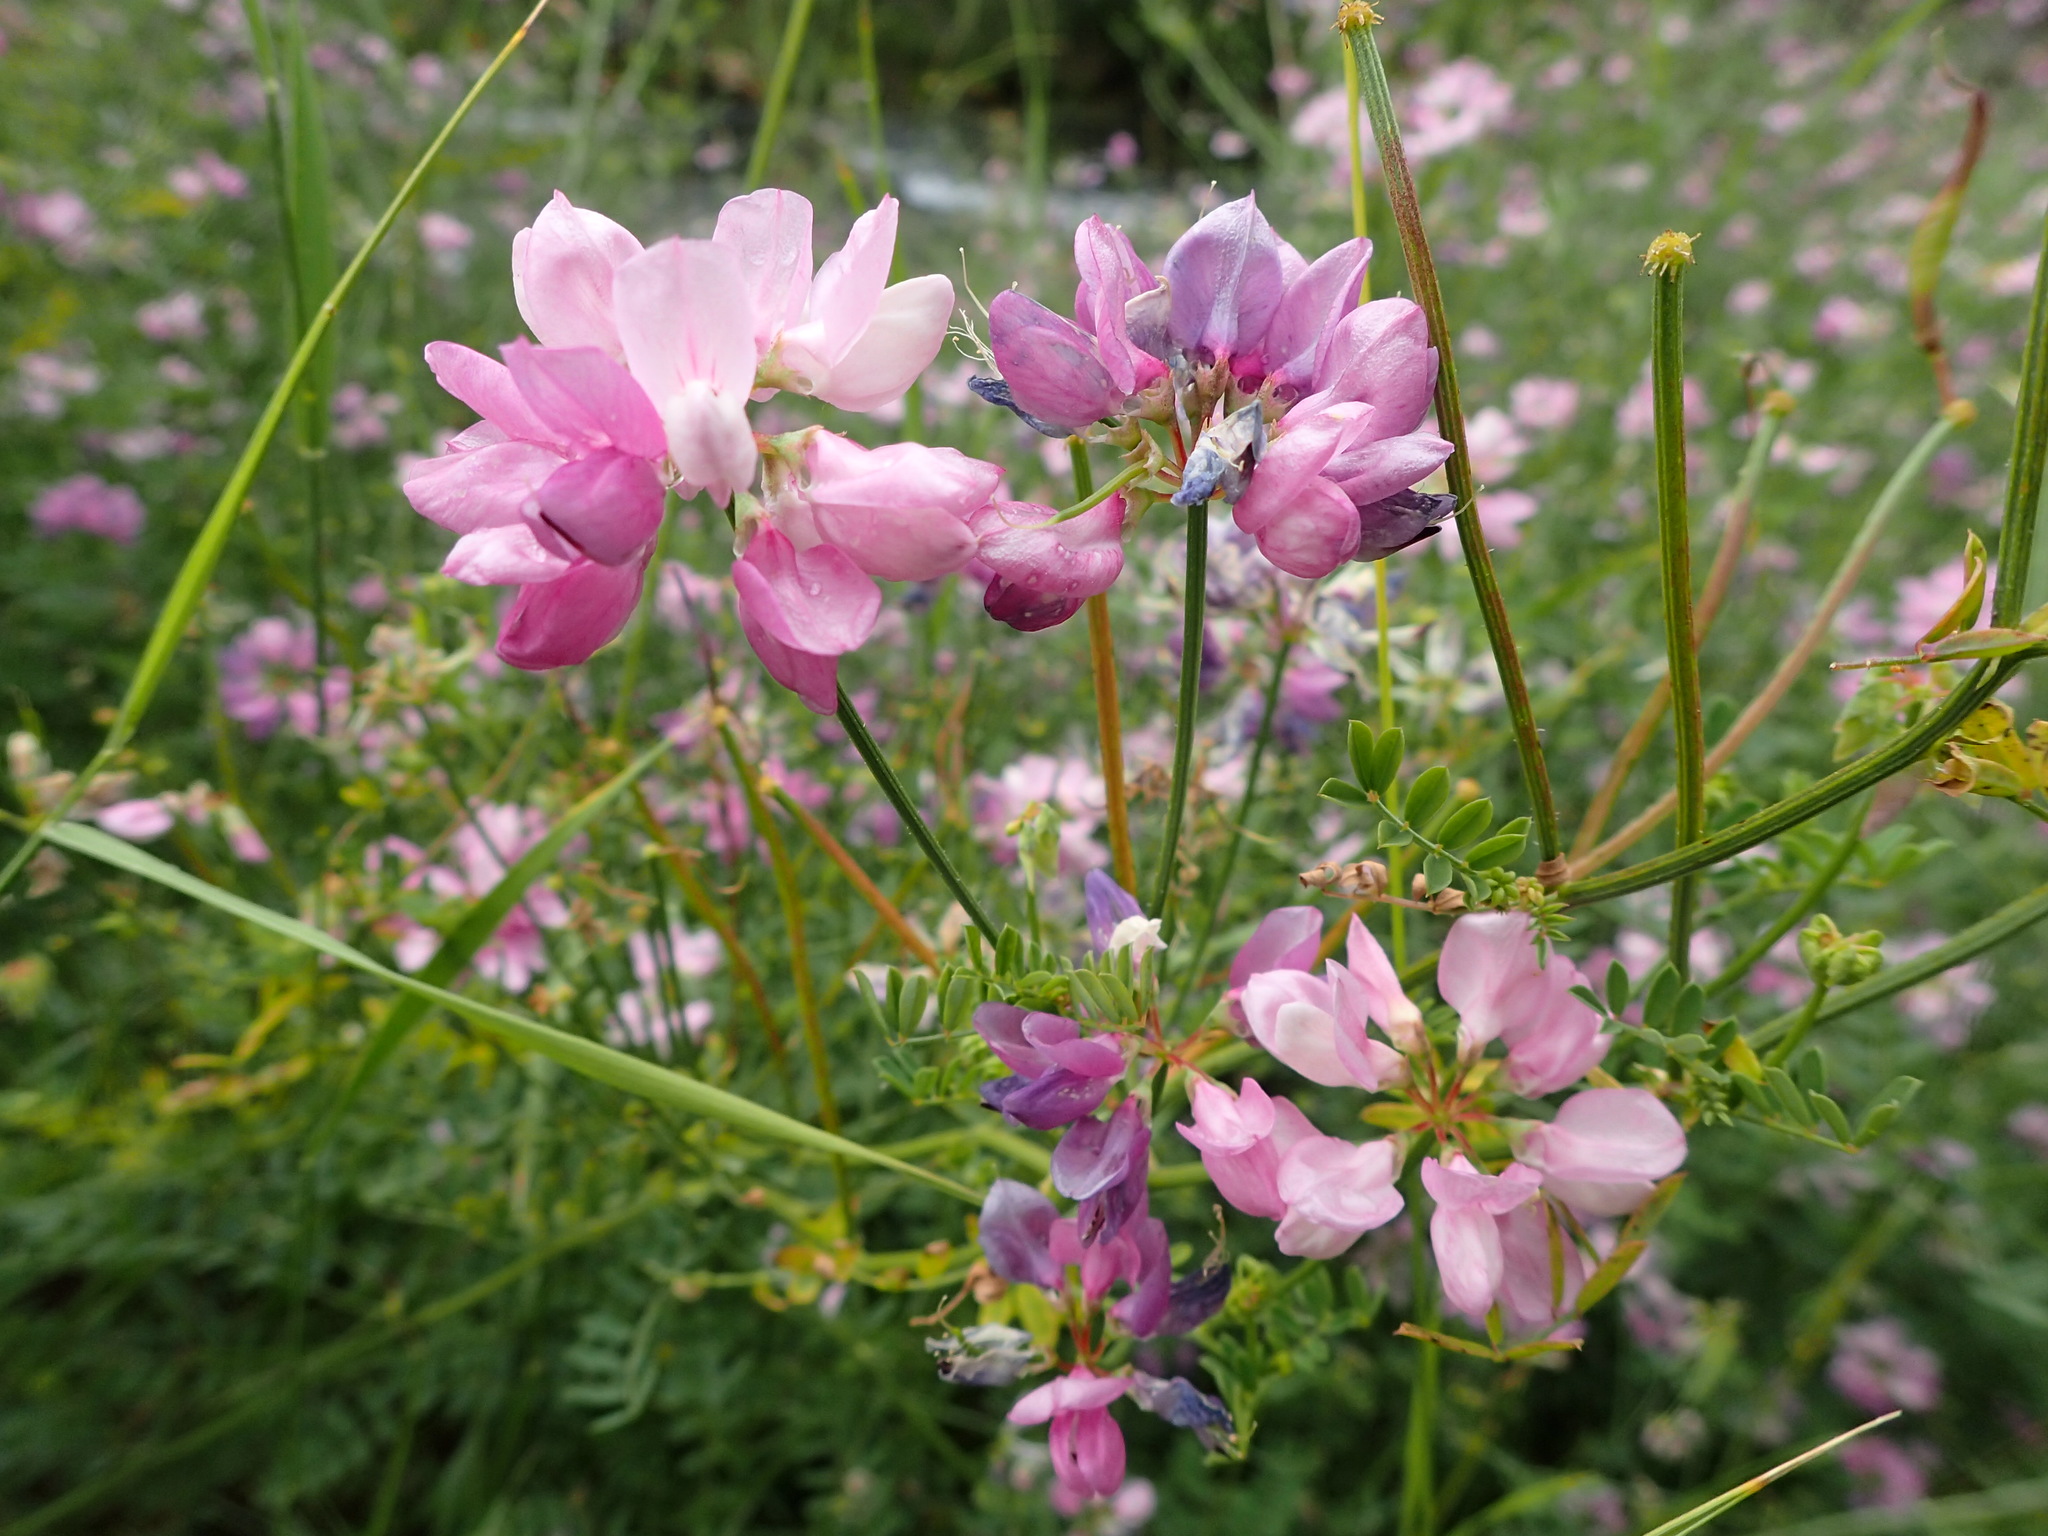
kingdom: Plantae
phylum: Tracheophyta
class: Magnoliopsida
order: Fabales
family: Fabaceae
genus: Coronilla
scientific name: Coronilla varia
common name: Crownvetch
